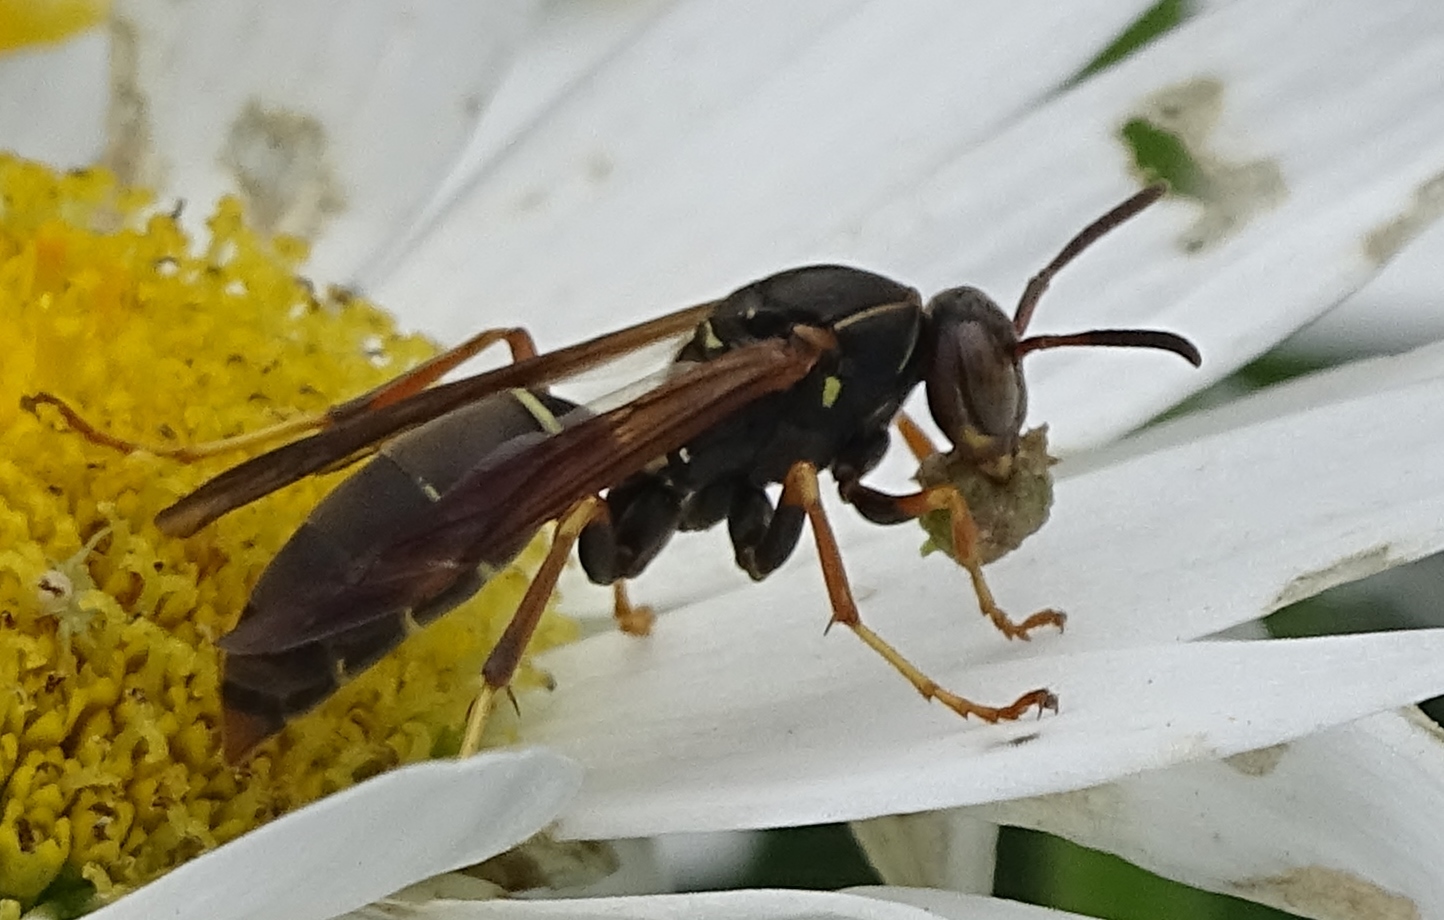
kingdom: Animalia
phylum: Arthropoda
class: Insecta
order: Hymenoptera
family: Eumenidae
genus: Polistes
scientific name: Polistes fuscatus
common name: Dark paper wasp
